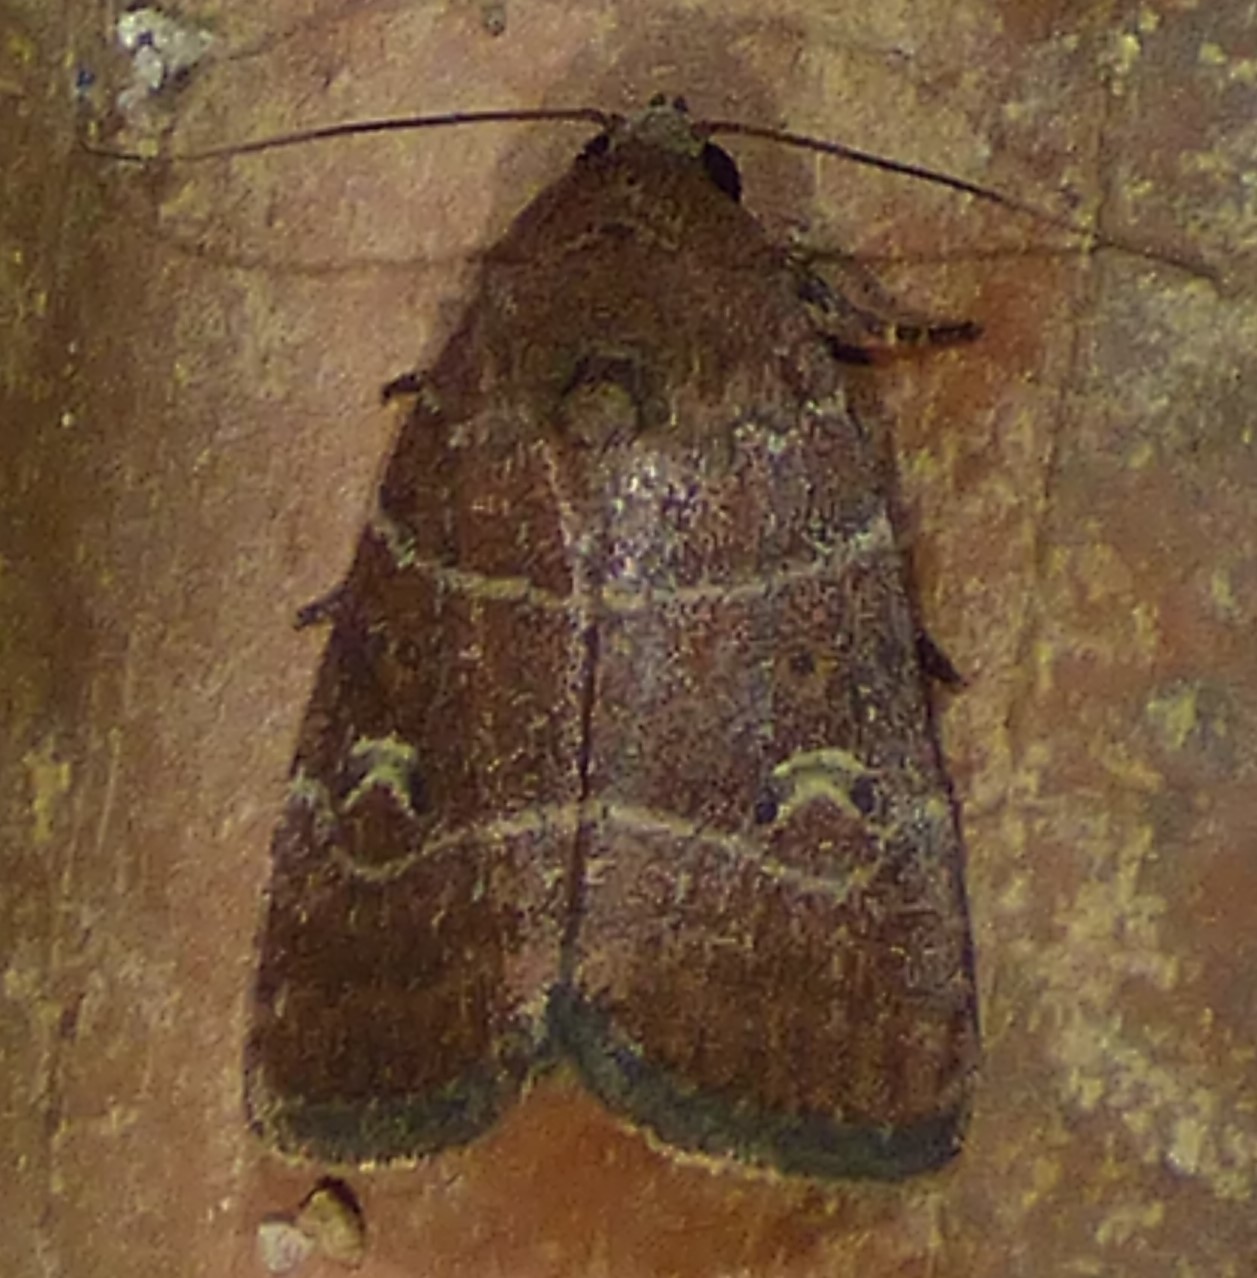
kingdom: Animalia
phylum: Arthropoda
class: Insecta
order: Lepidoptera
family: Noctuidae
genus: Elaphria
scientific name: Elaphria grata
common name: Grateful midget moth
